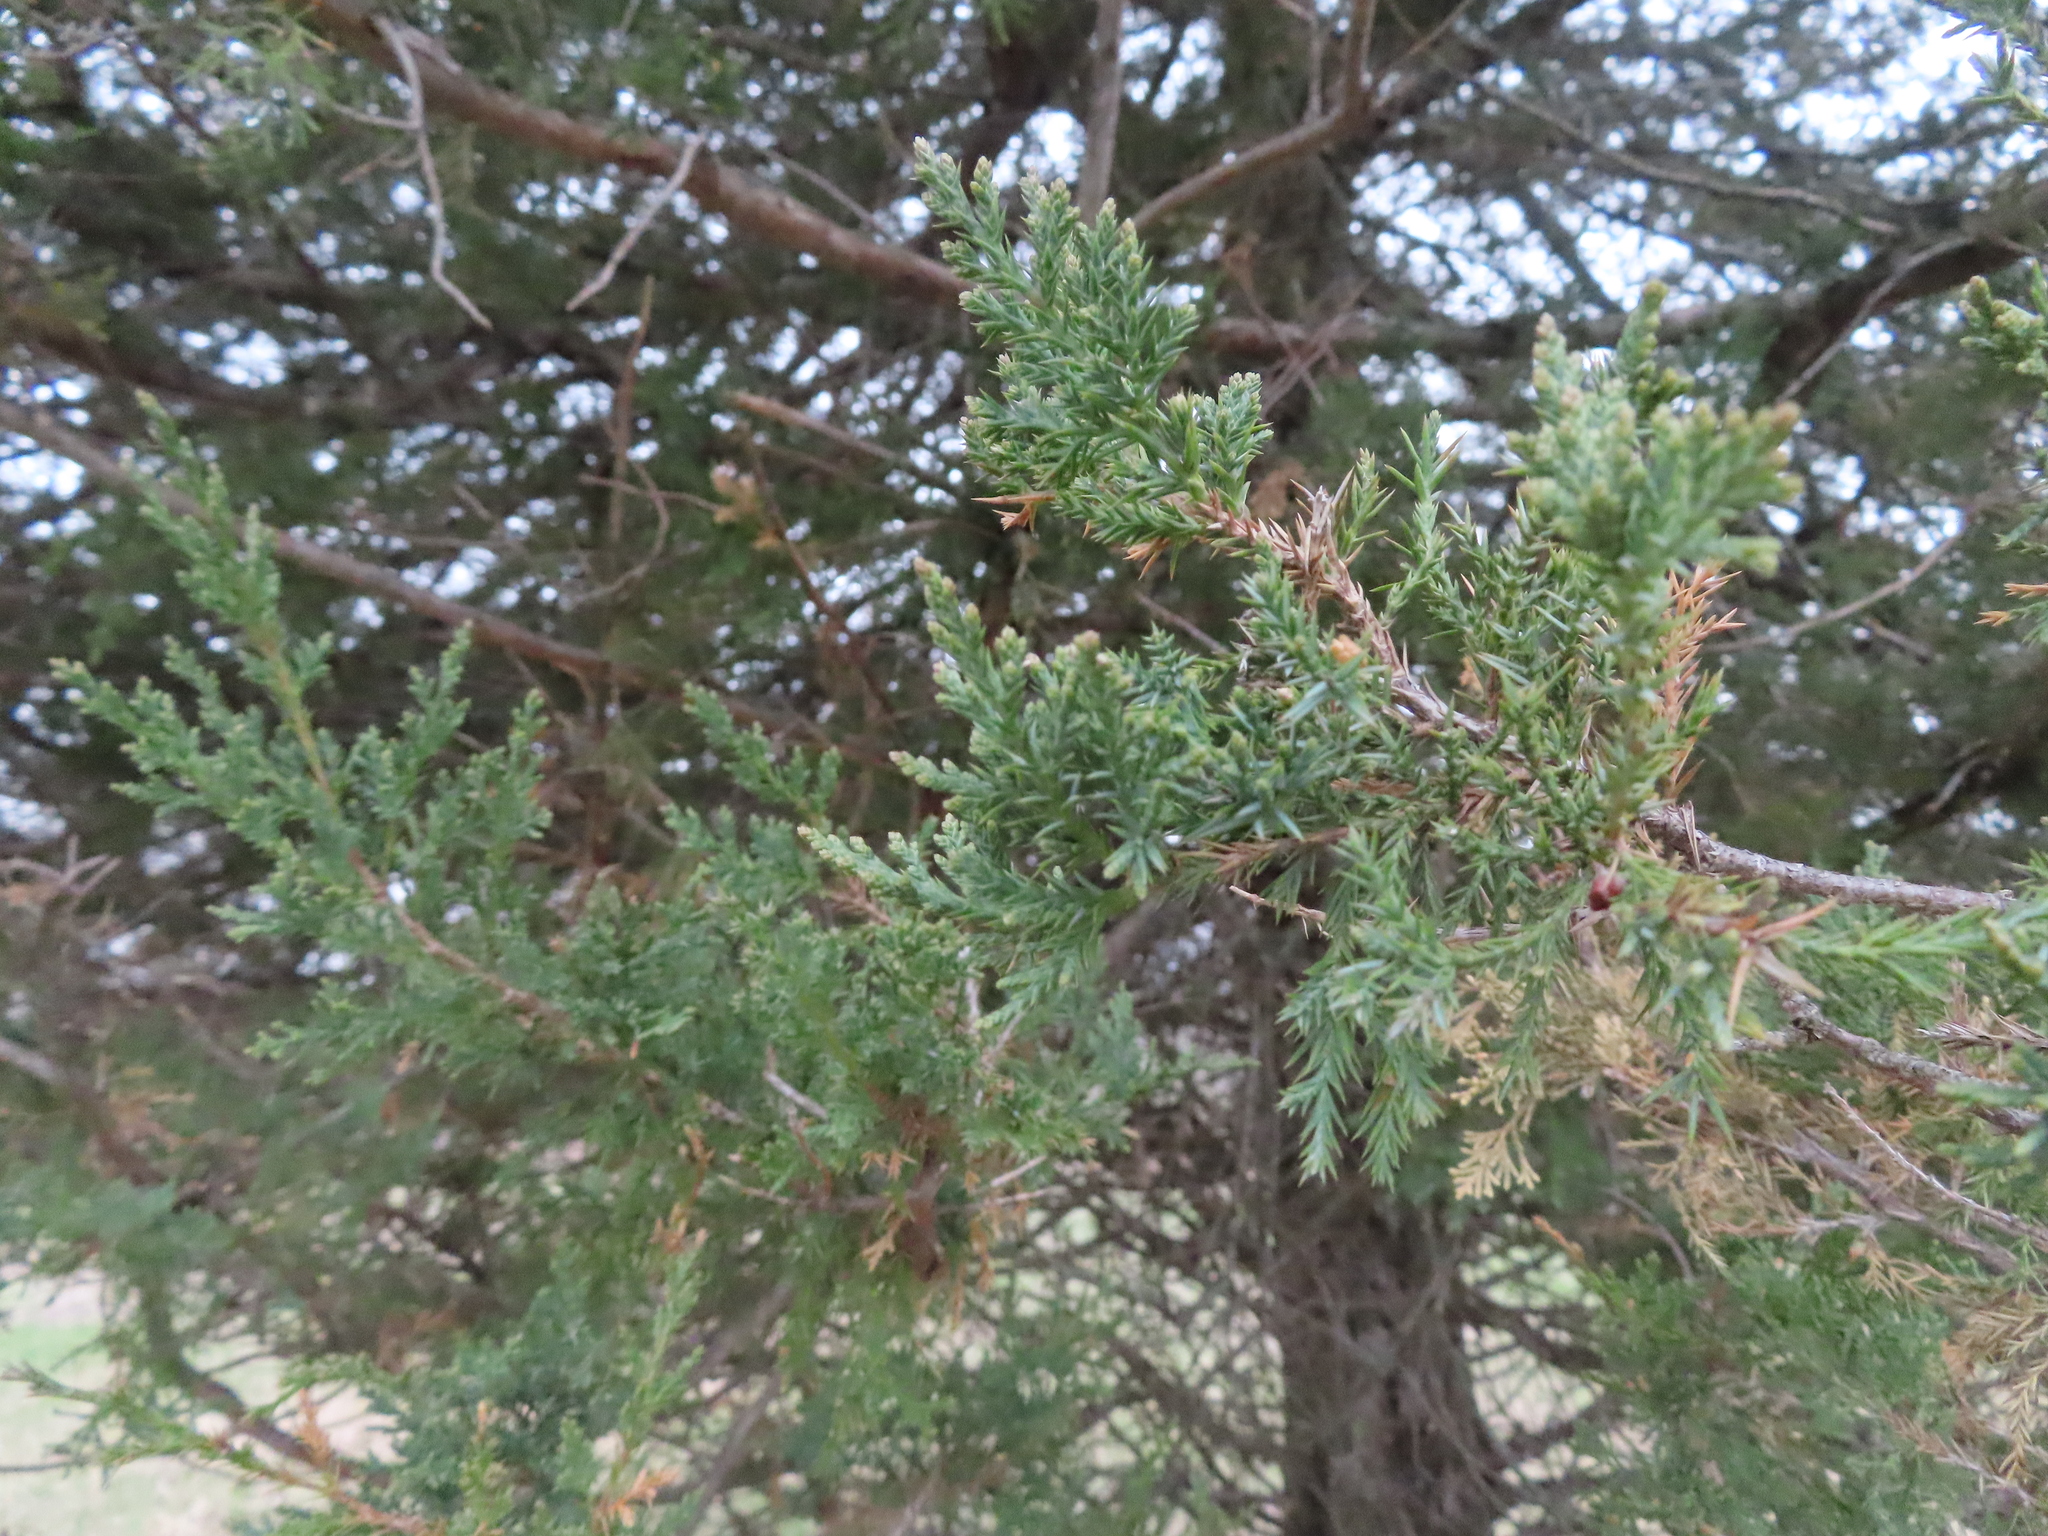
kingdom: Plantae
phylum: Tracheophyta
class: Pinopsida
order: Pinales
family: Cupressaceae
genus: Juniperus
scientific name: Juniperus virginiana
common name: Red juniper
